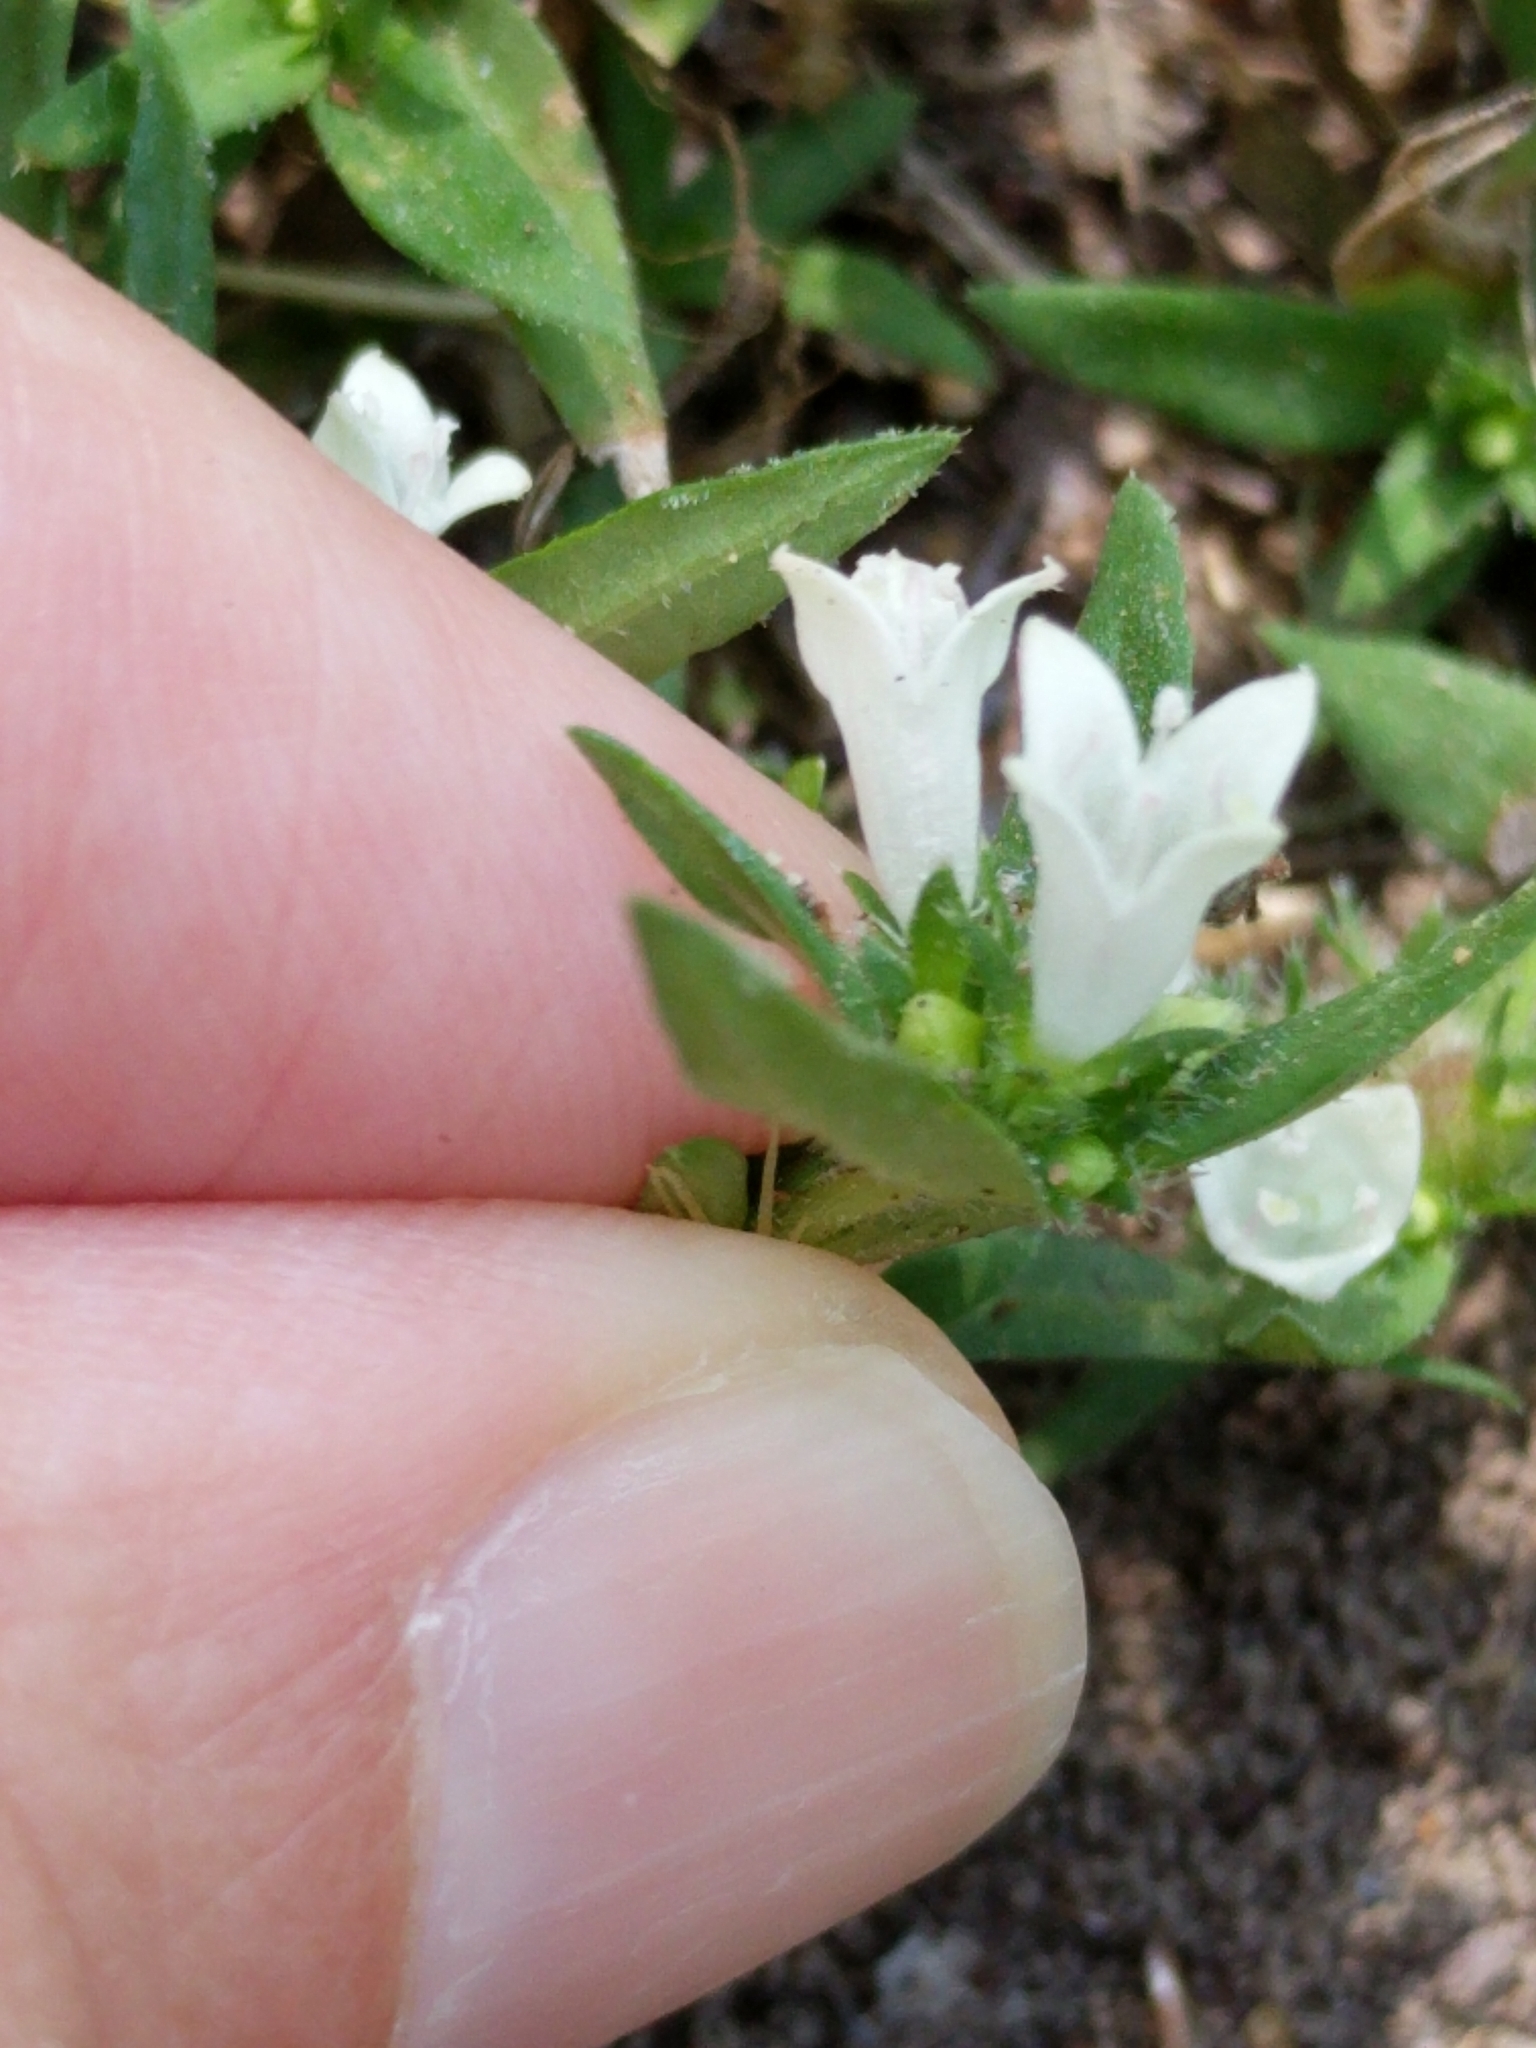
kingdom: Plantae
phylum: Tracheophyta
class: Magnoliopsida
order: Gentianales
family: Rubiaceae
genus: Richardia
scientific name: Richardia tricocca
